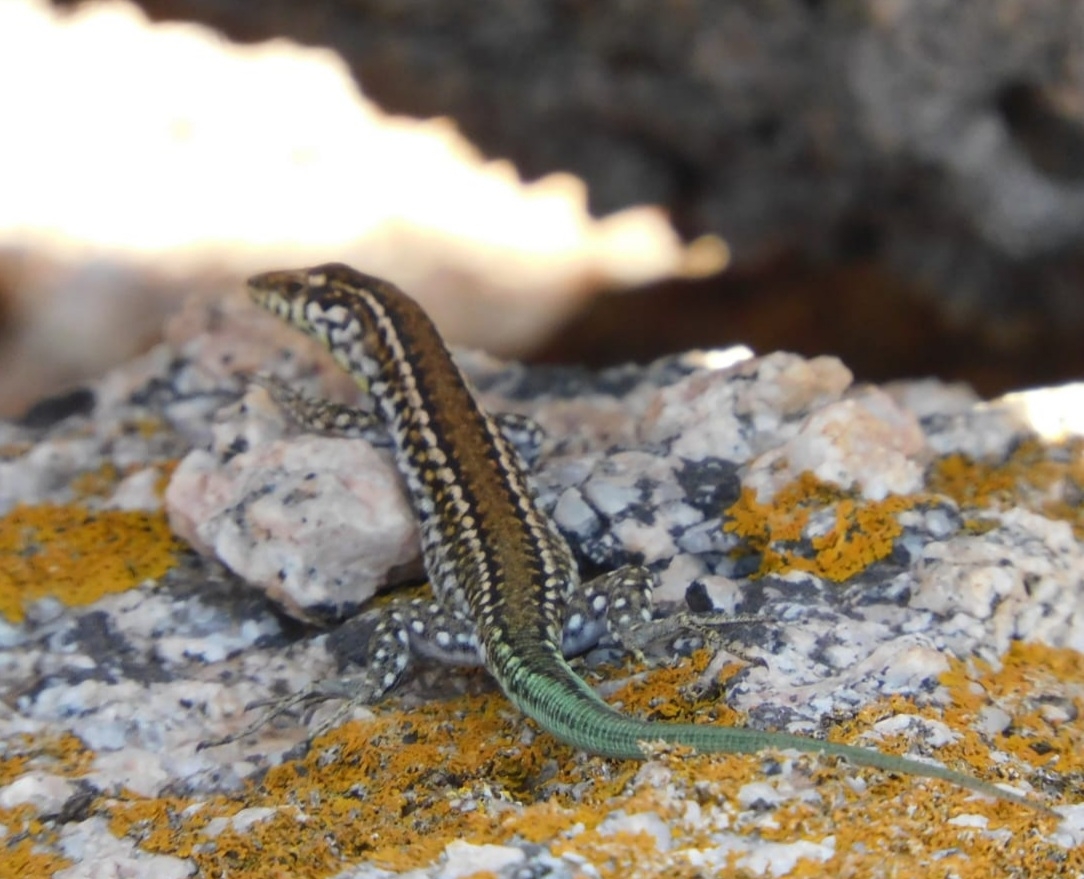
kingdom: Animalia
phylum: Chordata
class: Squamata
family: Lacertidae
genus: Podarcis
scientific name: Podarcis tiliguerta
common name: Tyrrhenian wall lizard
